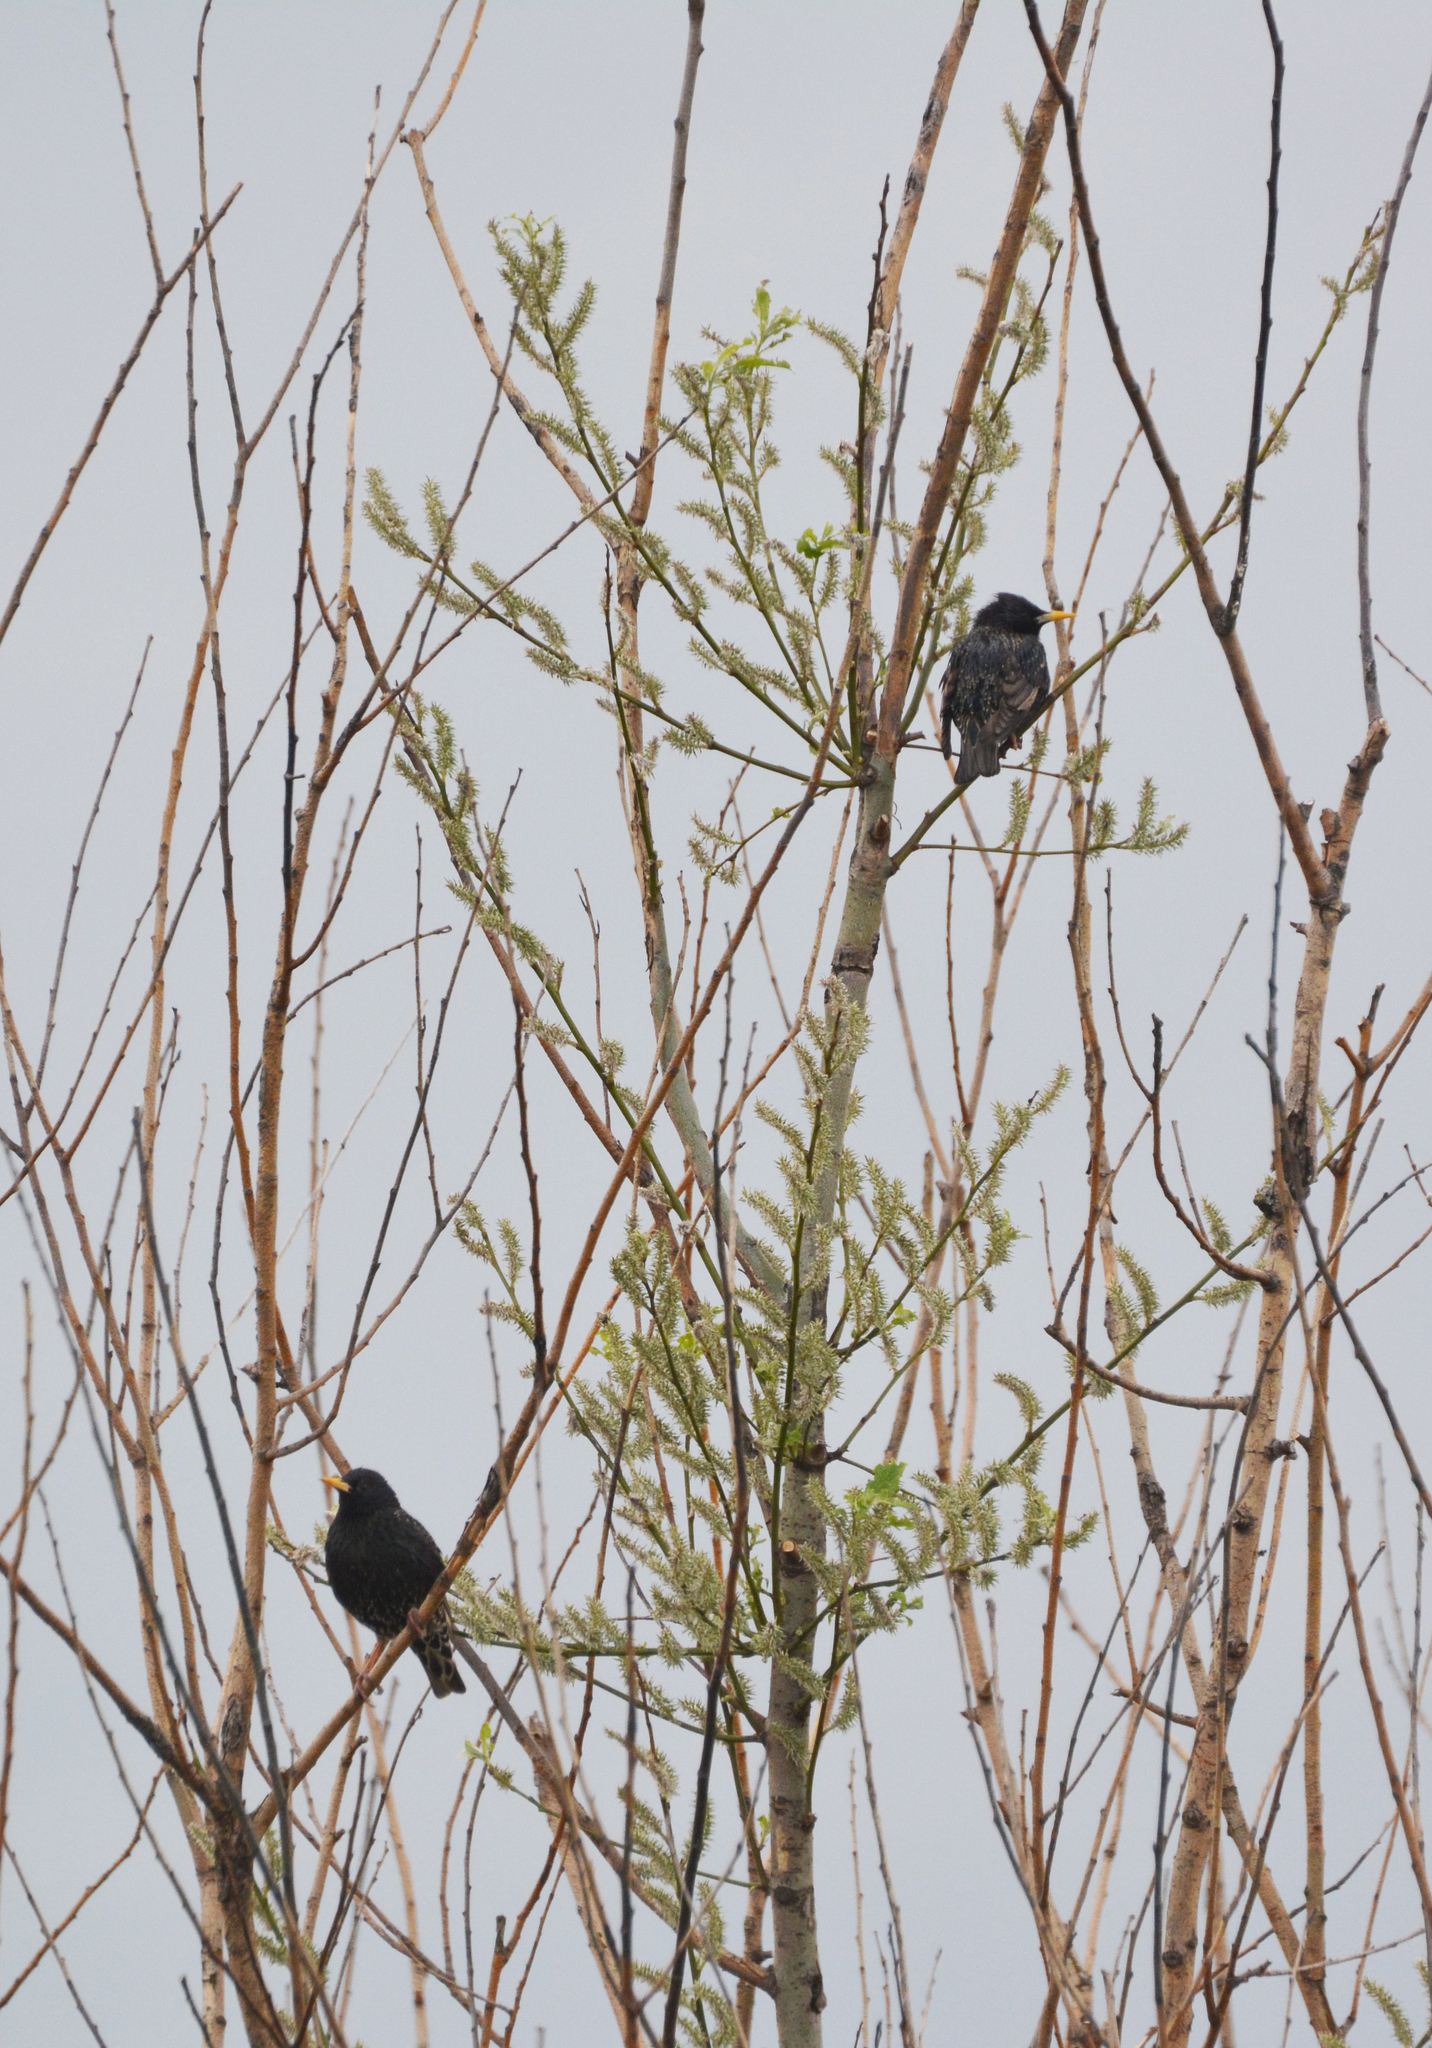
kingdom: Animalia
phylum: Chordata
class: Aves
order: Passeriformes
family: Sturnidae
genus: Sturnus
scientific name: Sturnus vulgaris
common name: Common starling
